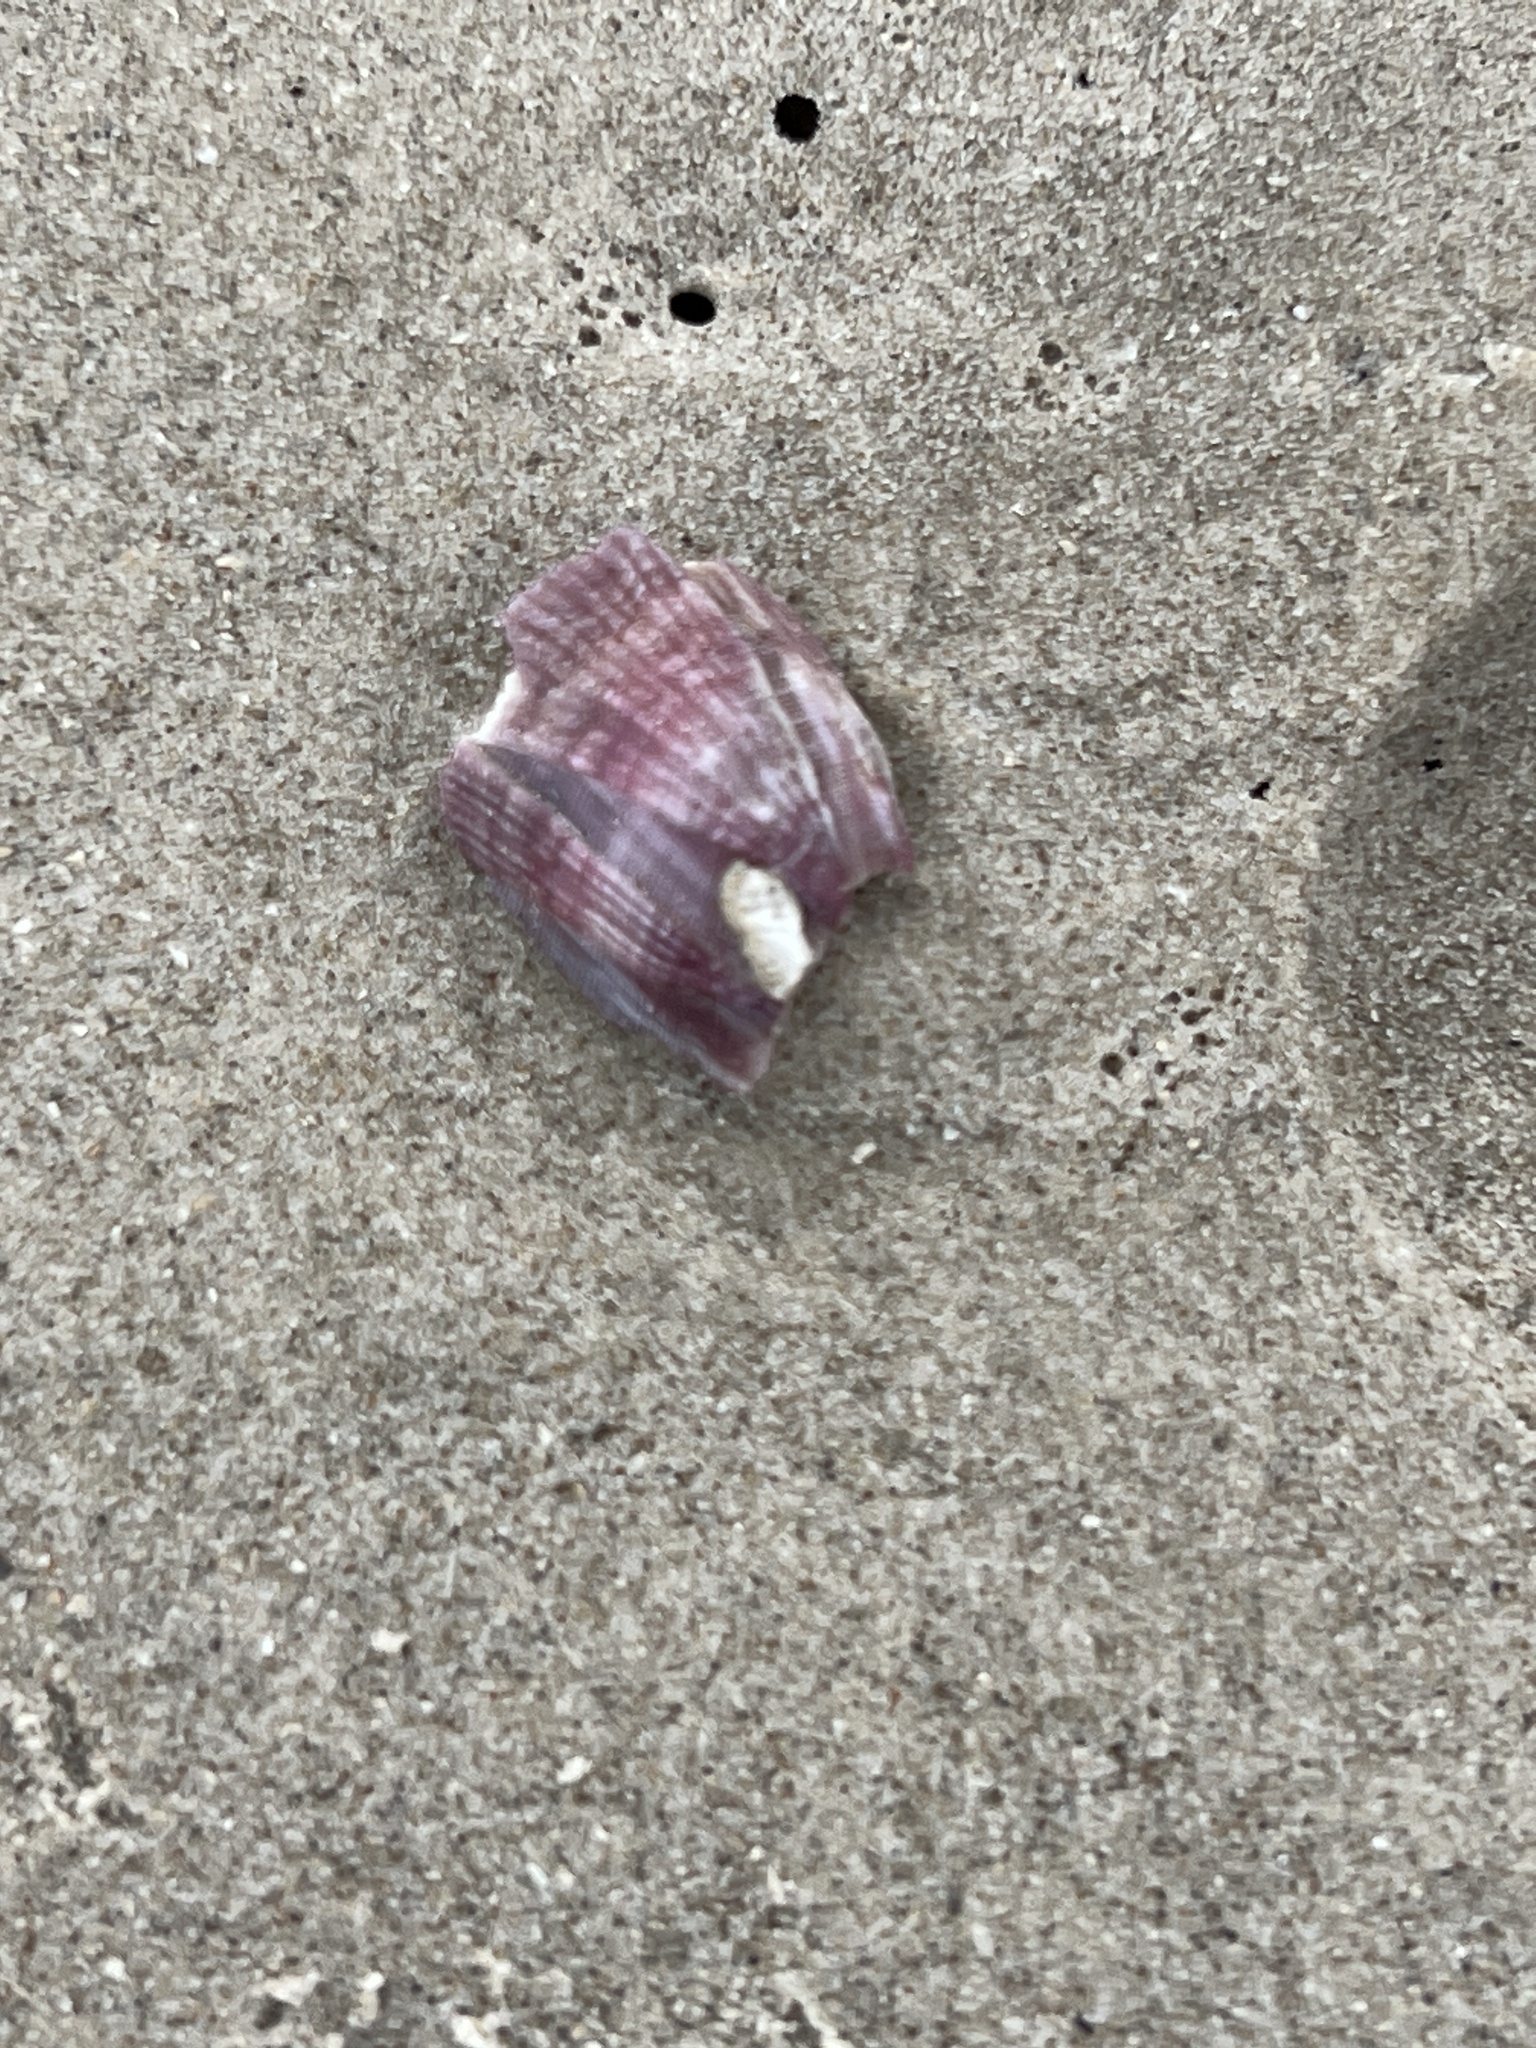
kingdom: Animalia
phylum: Arthropoda
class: Maxillopoda
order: Sessilia
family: Balanidae
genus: Megabalanus
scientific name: Megabalanus tintinnabulum
